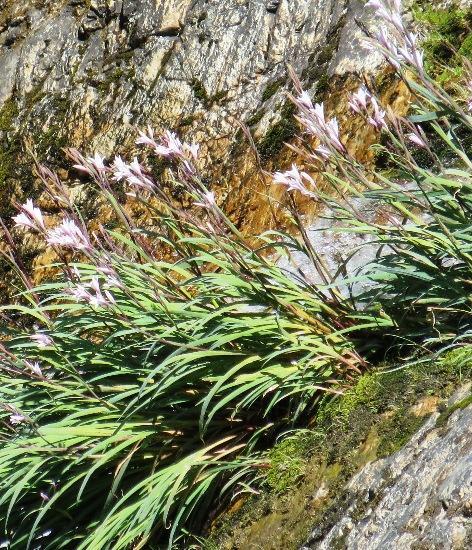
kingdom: Plantae
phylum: Tracheophyta
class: Liliopsida
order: Asparagales
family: Iridaceae
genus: Gladiolus
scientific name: Gladiolus aquamontanus
